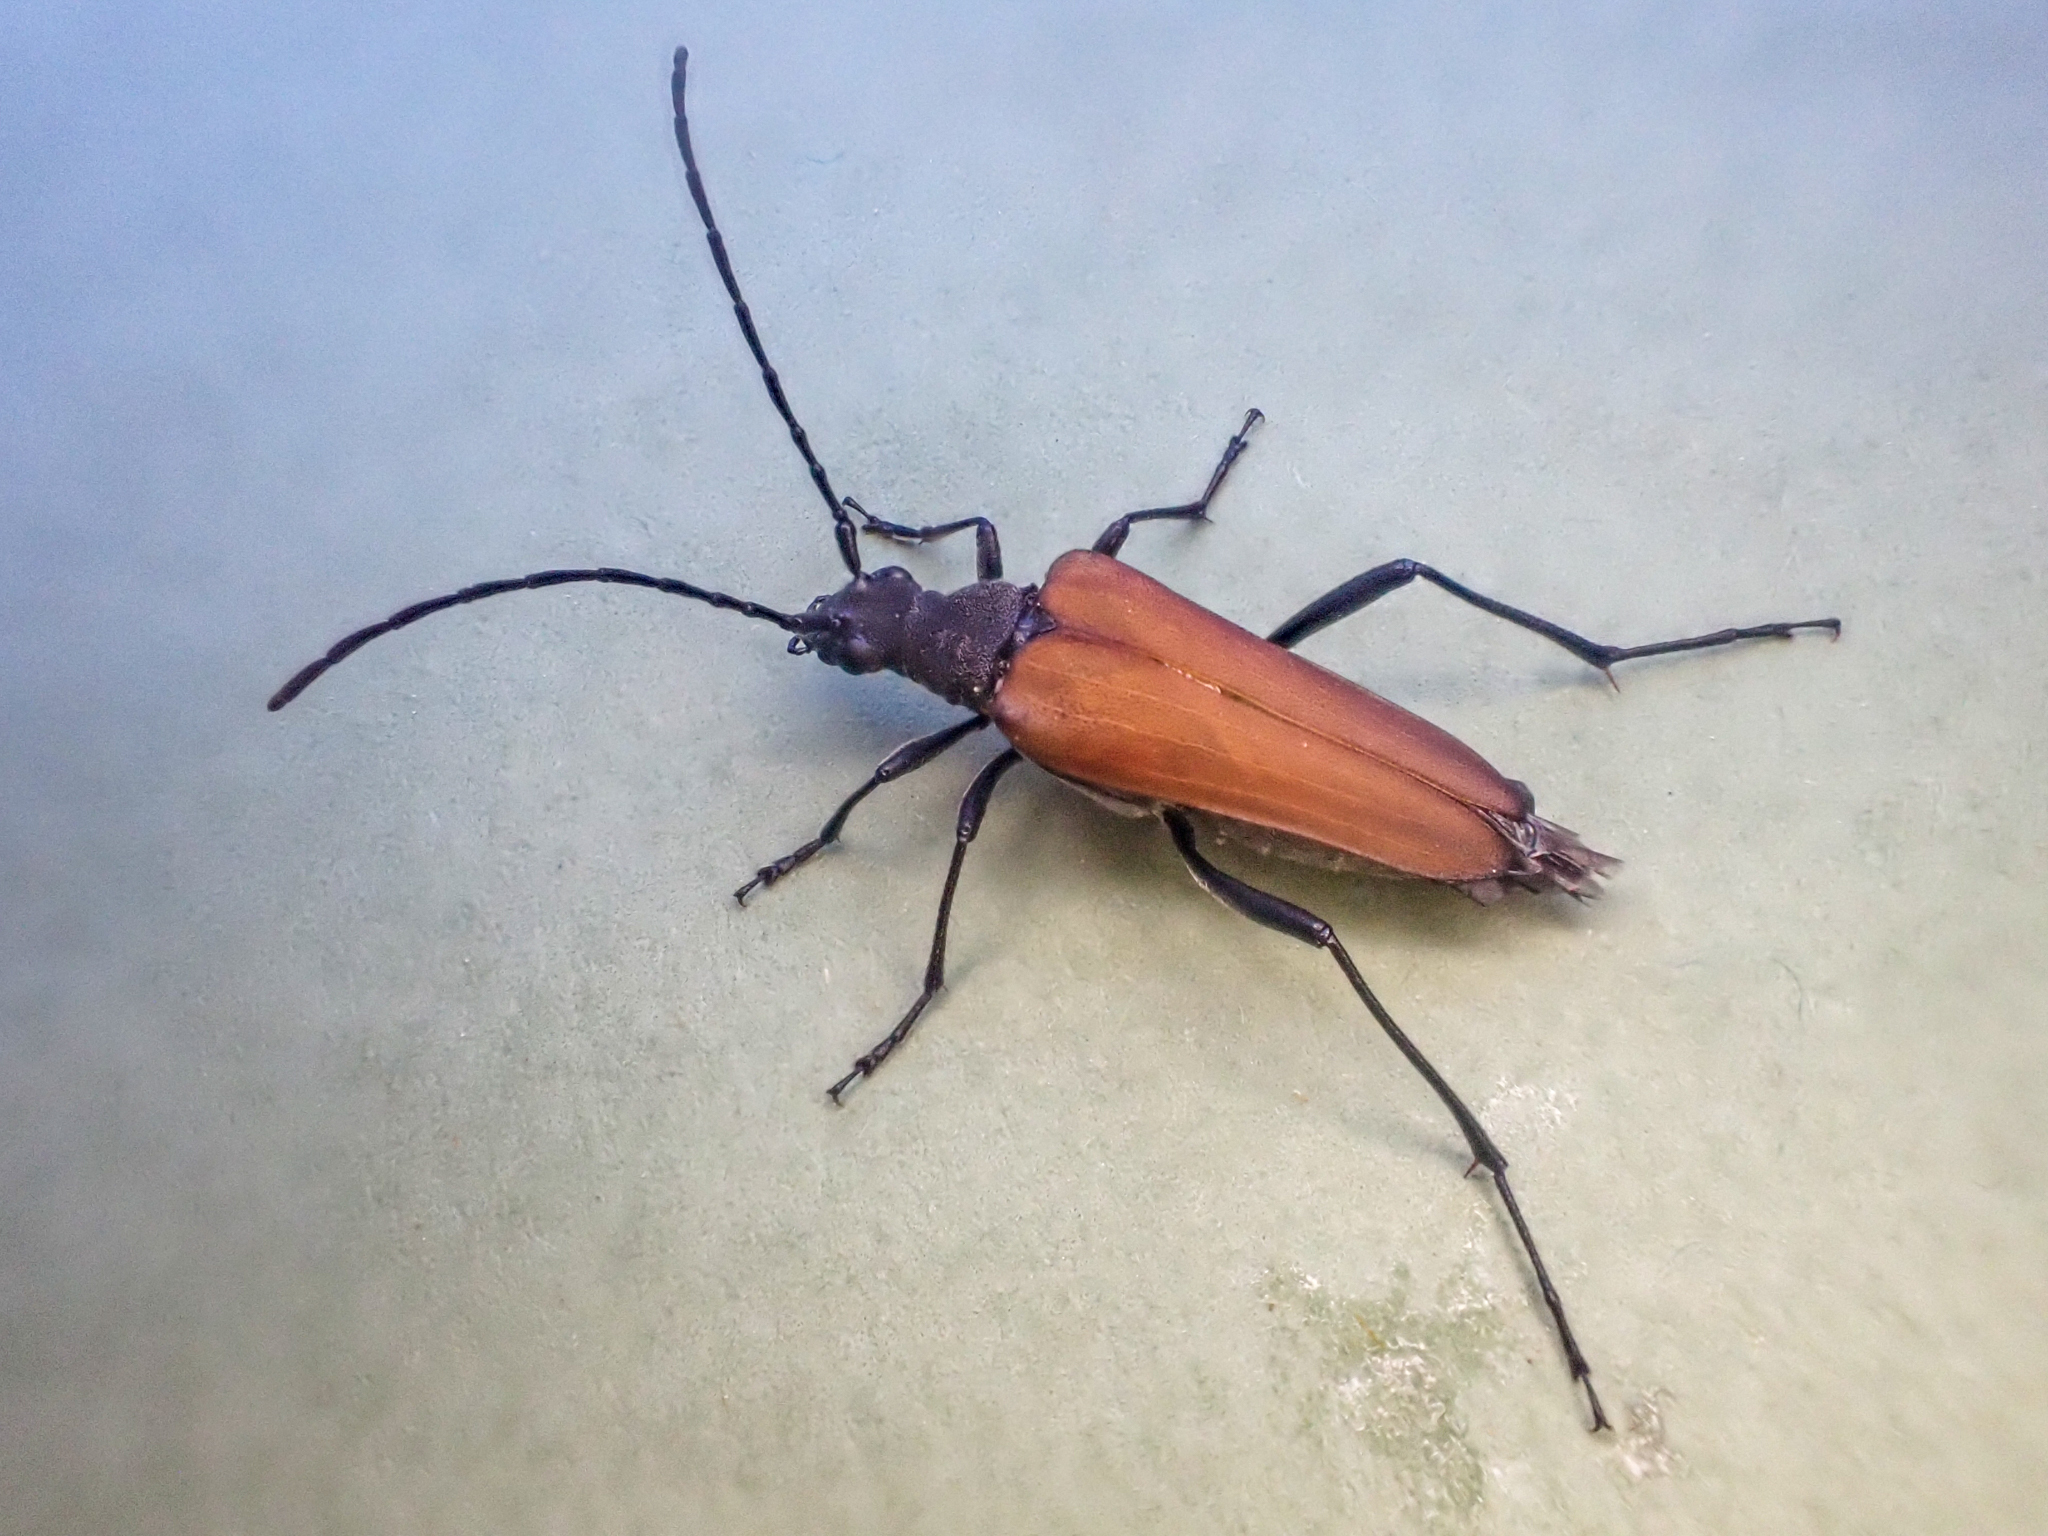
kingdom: Animalia
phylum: Arthropoda
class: Insecta
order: Coleoptera
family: Cerambycidae
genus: Trachysida
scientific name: Trachysida aspera
